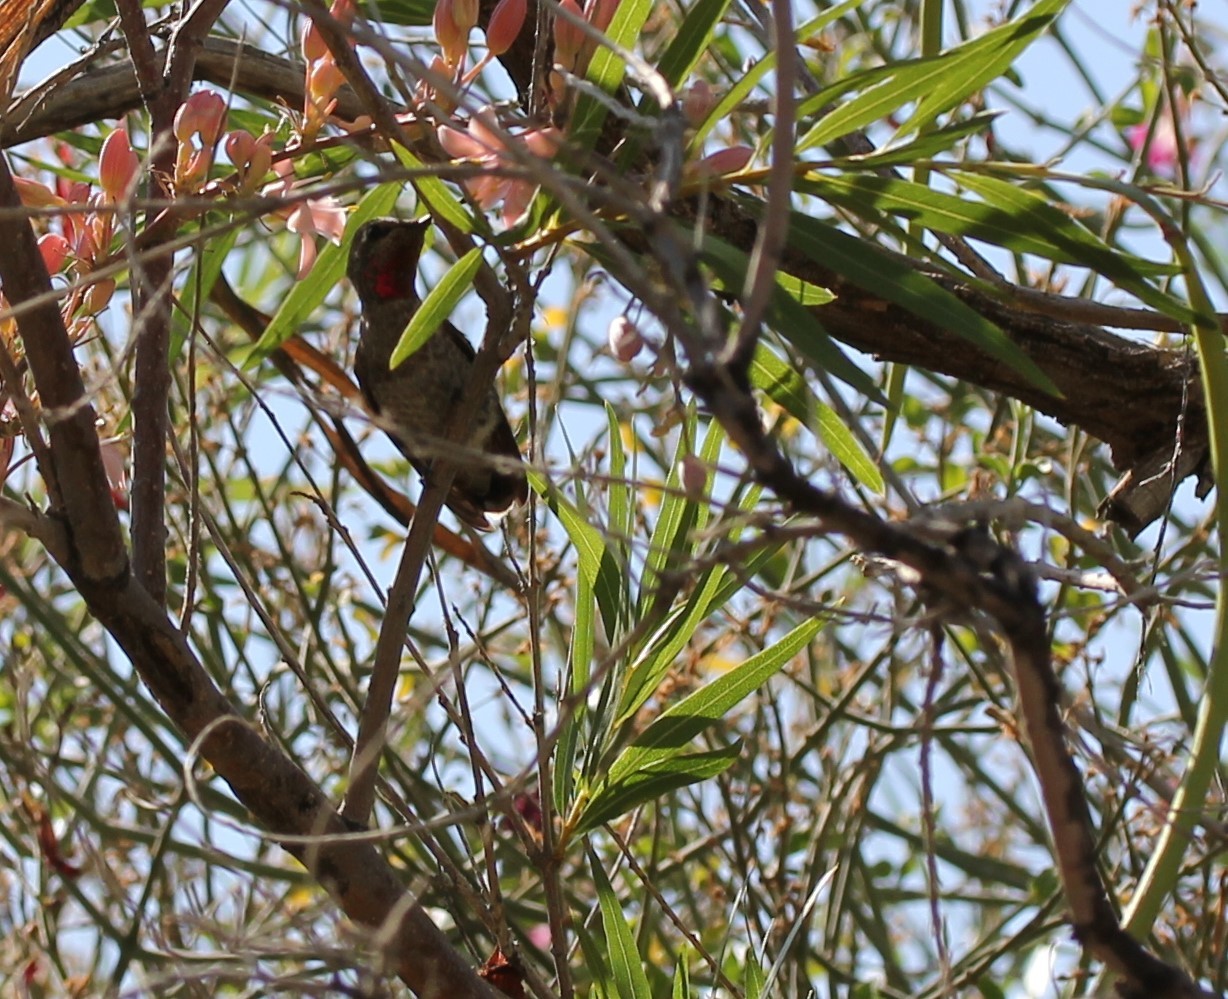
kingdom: Animalia
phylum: Chordata
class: Aves
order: Apodiformes
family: Trochilidae
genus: Calypte
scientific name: Calypte anna
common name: Anna's hummingbird
